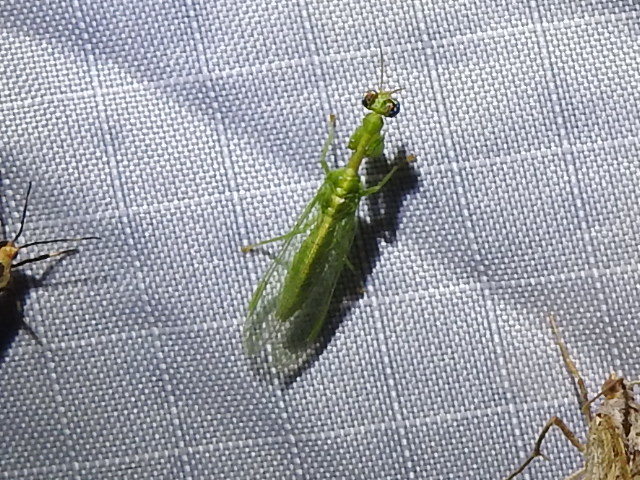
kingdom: Animalia
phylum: Arthropoda
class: Insecta
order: Neuroptera
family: Mantispidae
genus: Zeugomantispa
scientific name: Zeugomantispa minuta
